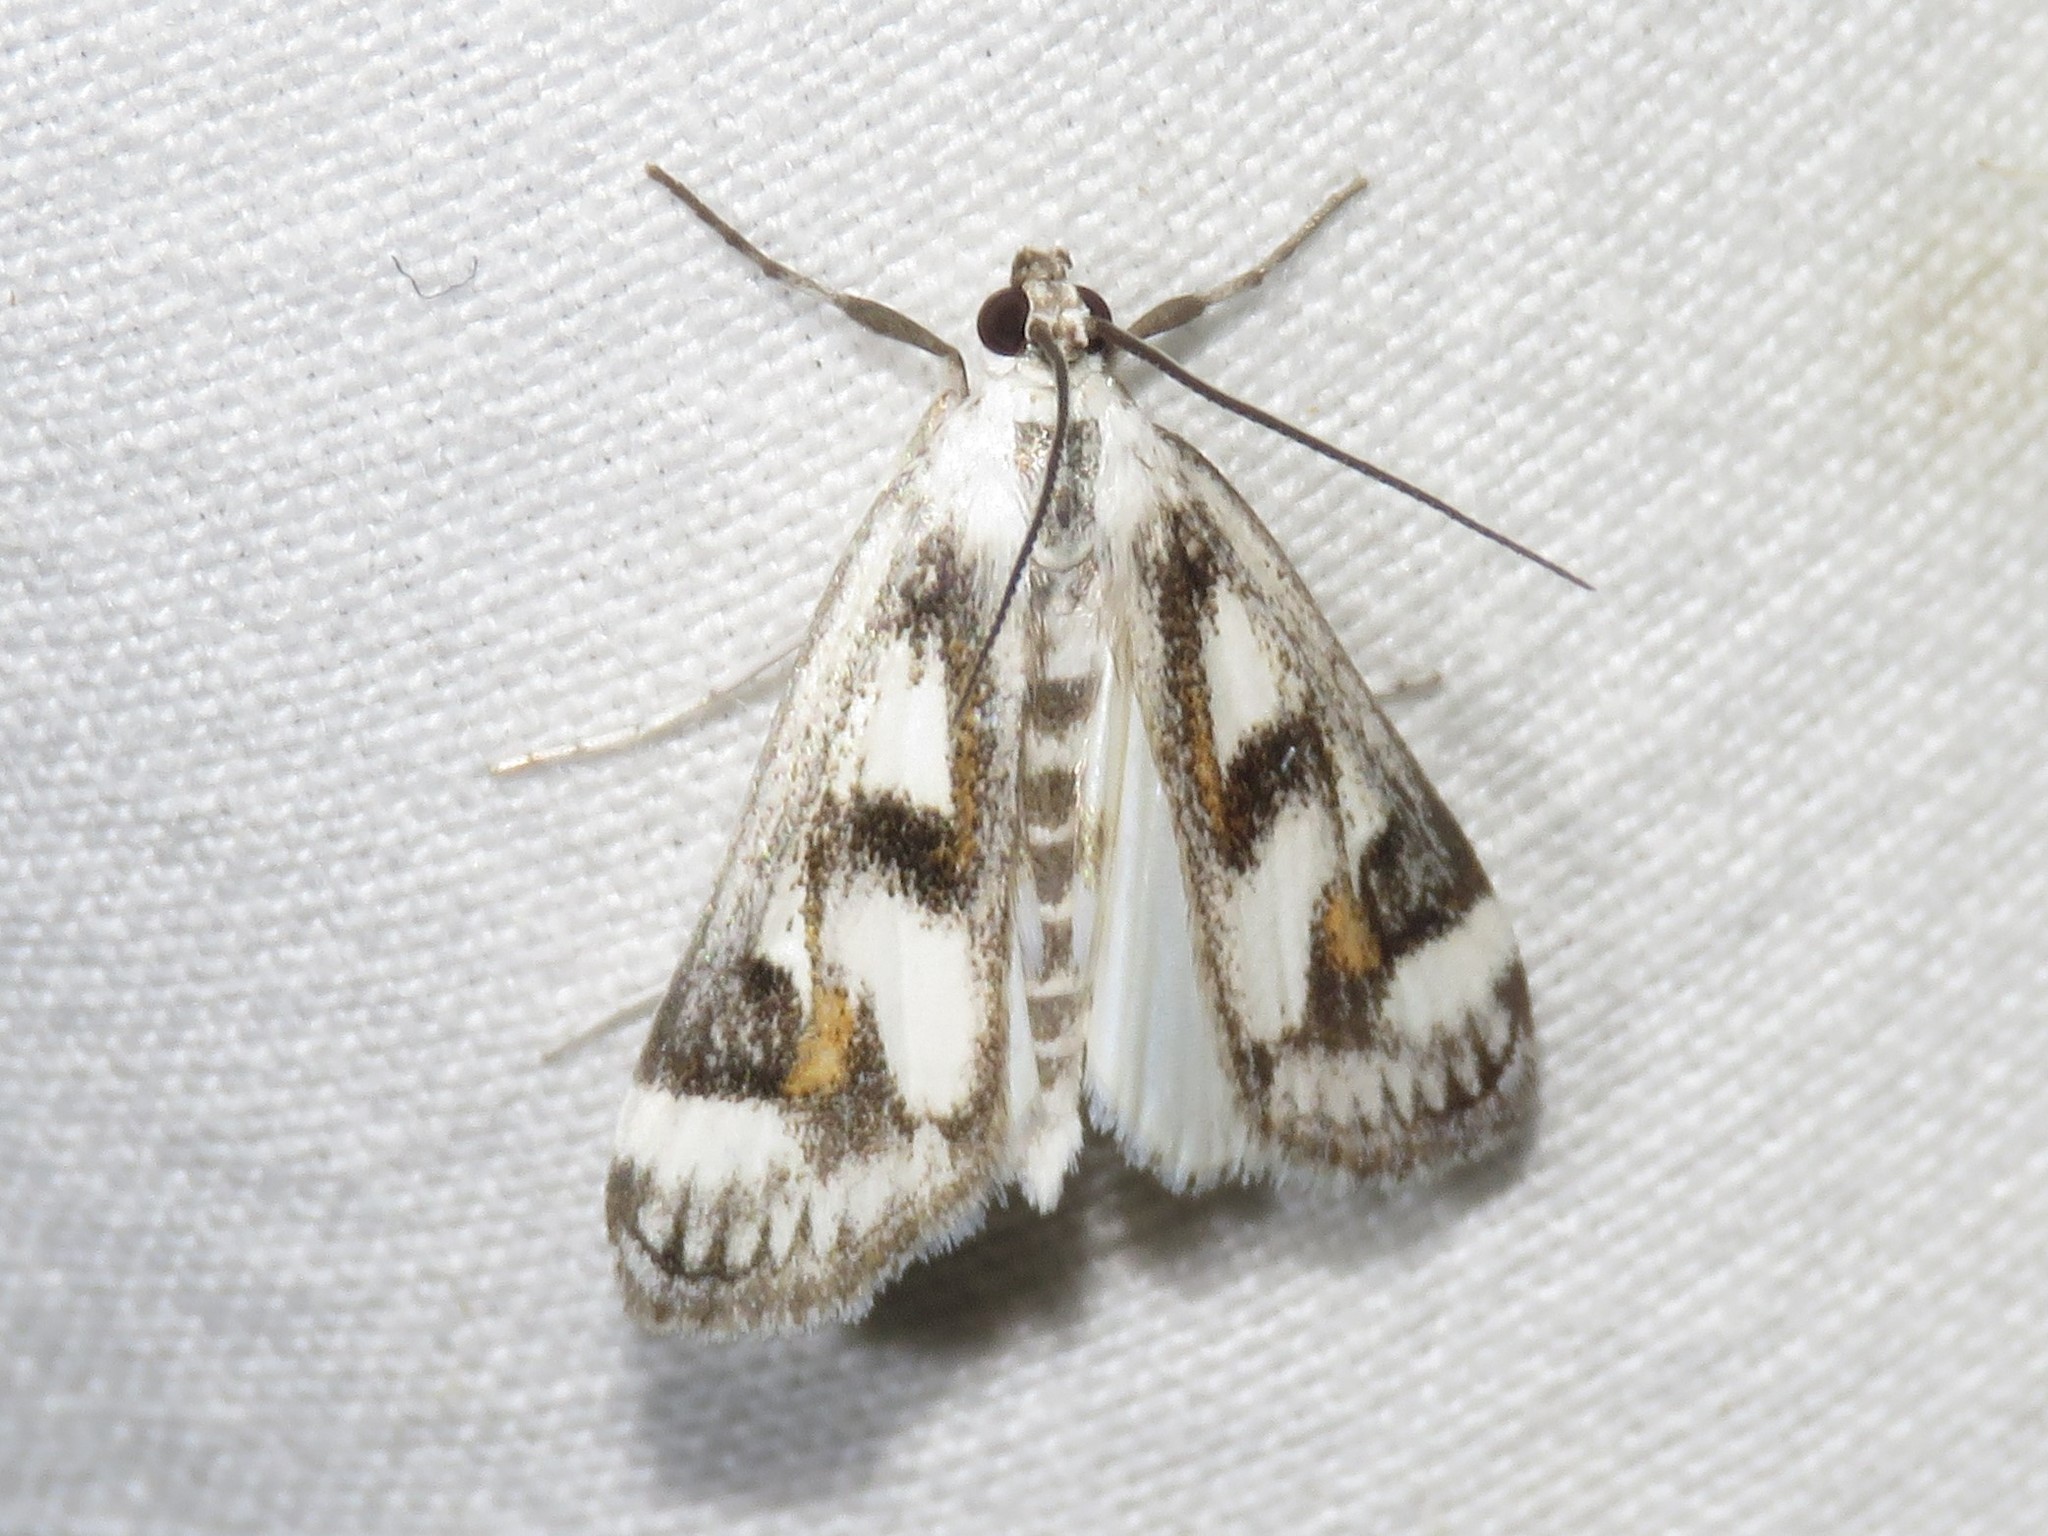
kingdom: Animalia
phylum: Arthropoda
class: Insecta
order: Lepidoptera
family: Crambidae
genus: Parapoynx
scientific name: Parapoynx maculalis
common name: Polymorphic pondweed moth
